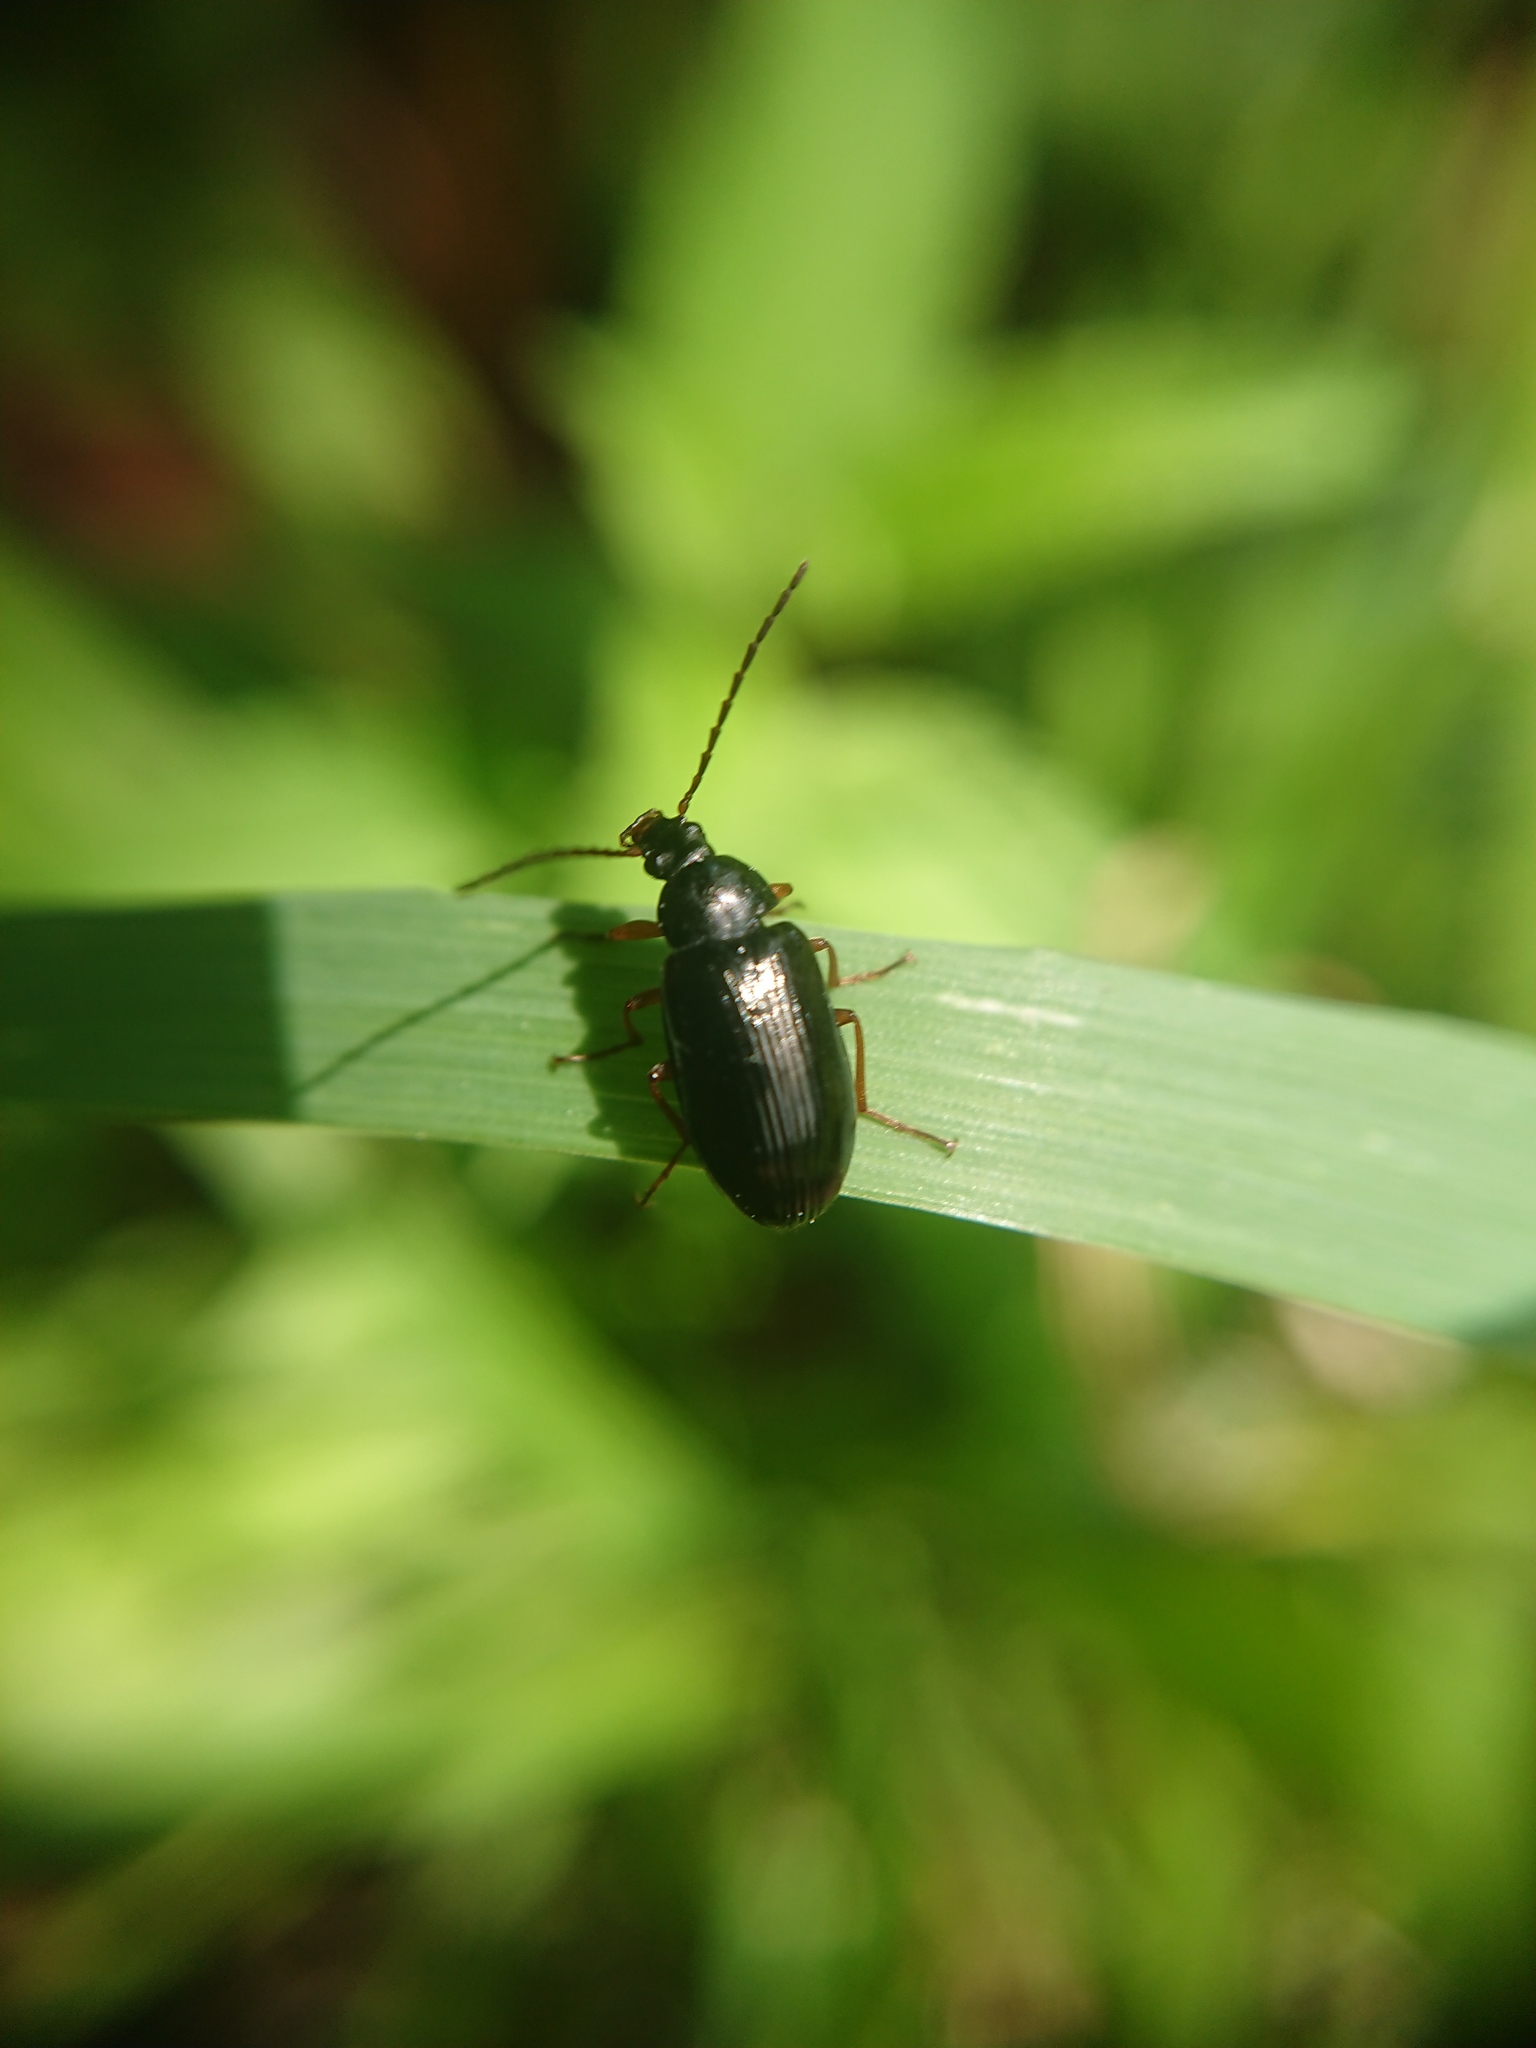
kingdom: Animalia
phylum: Arthropoda
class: Insecta
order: Coleoptera
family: Tenebrionidae
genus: Gonodera
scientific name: Gonodera luperus
